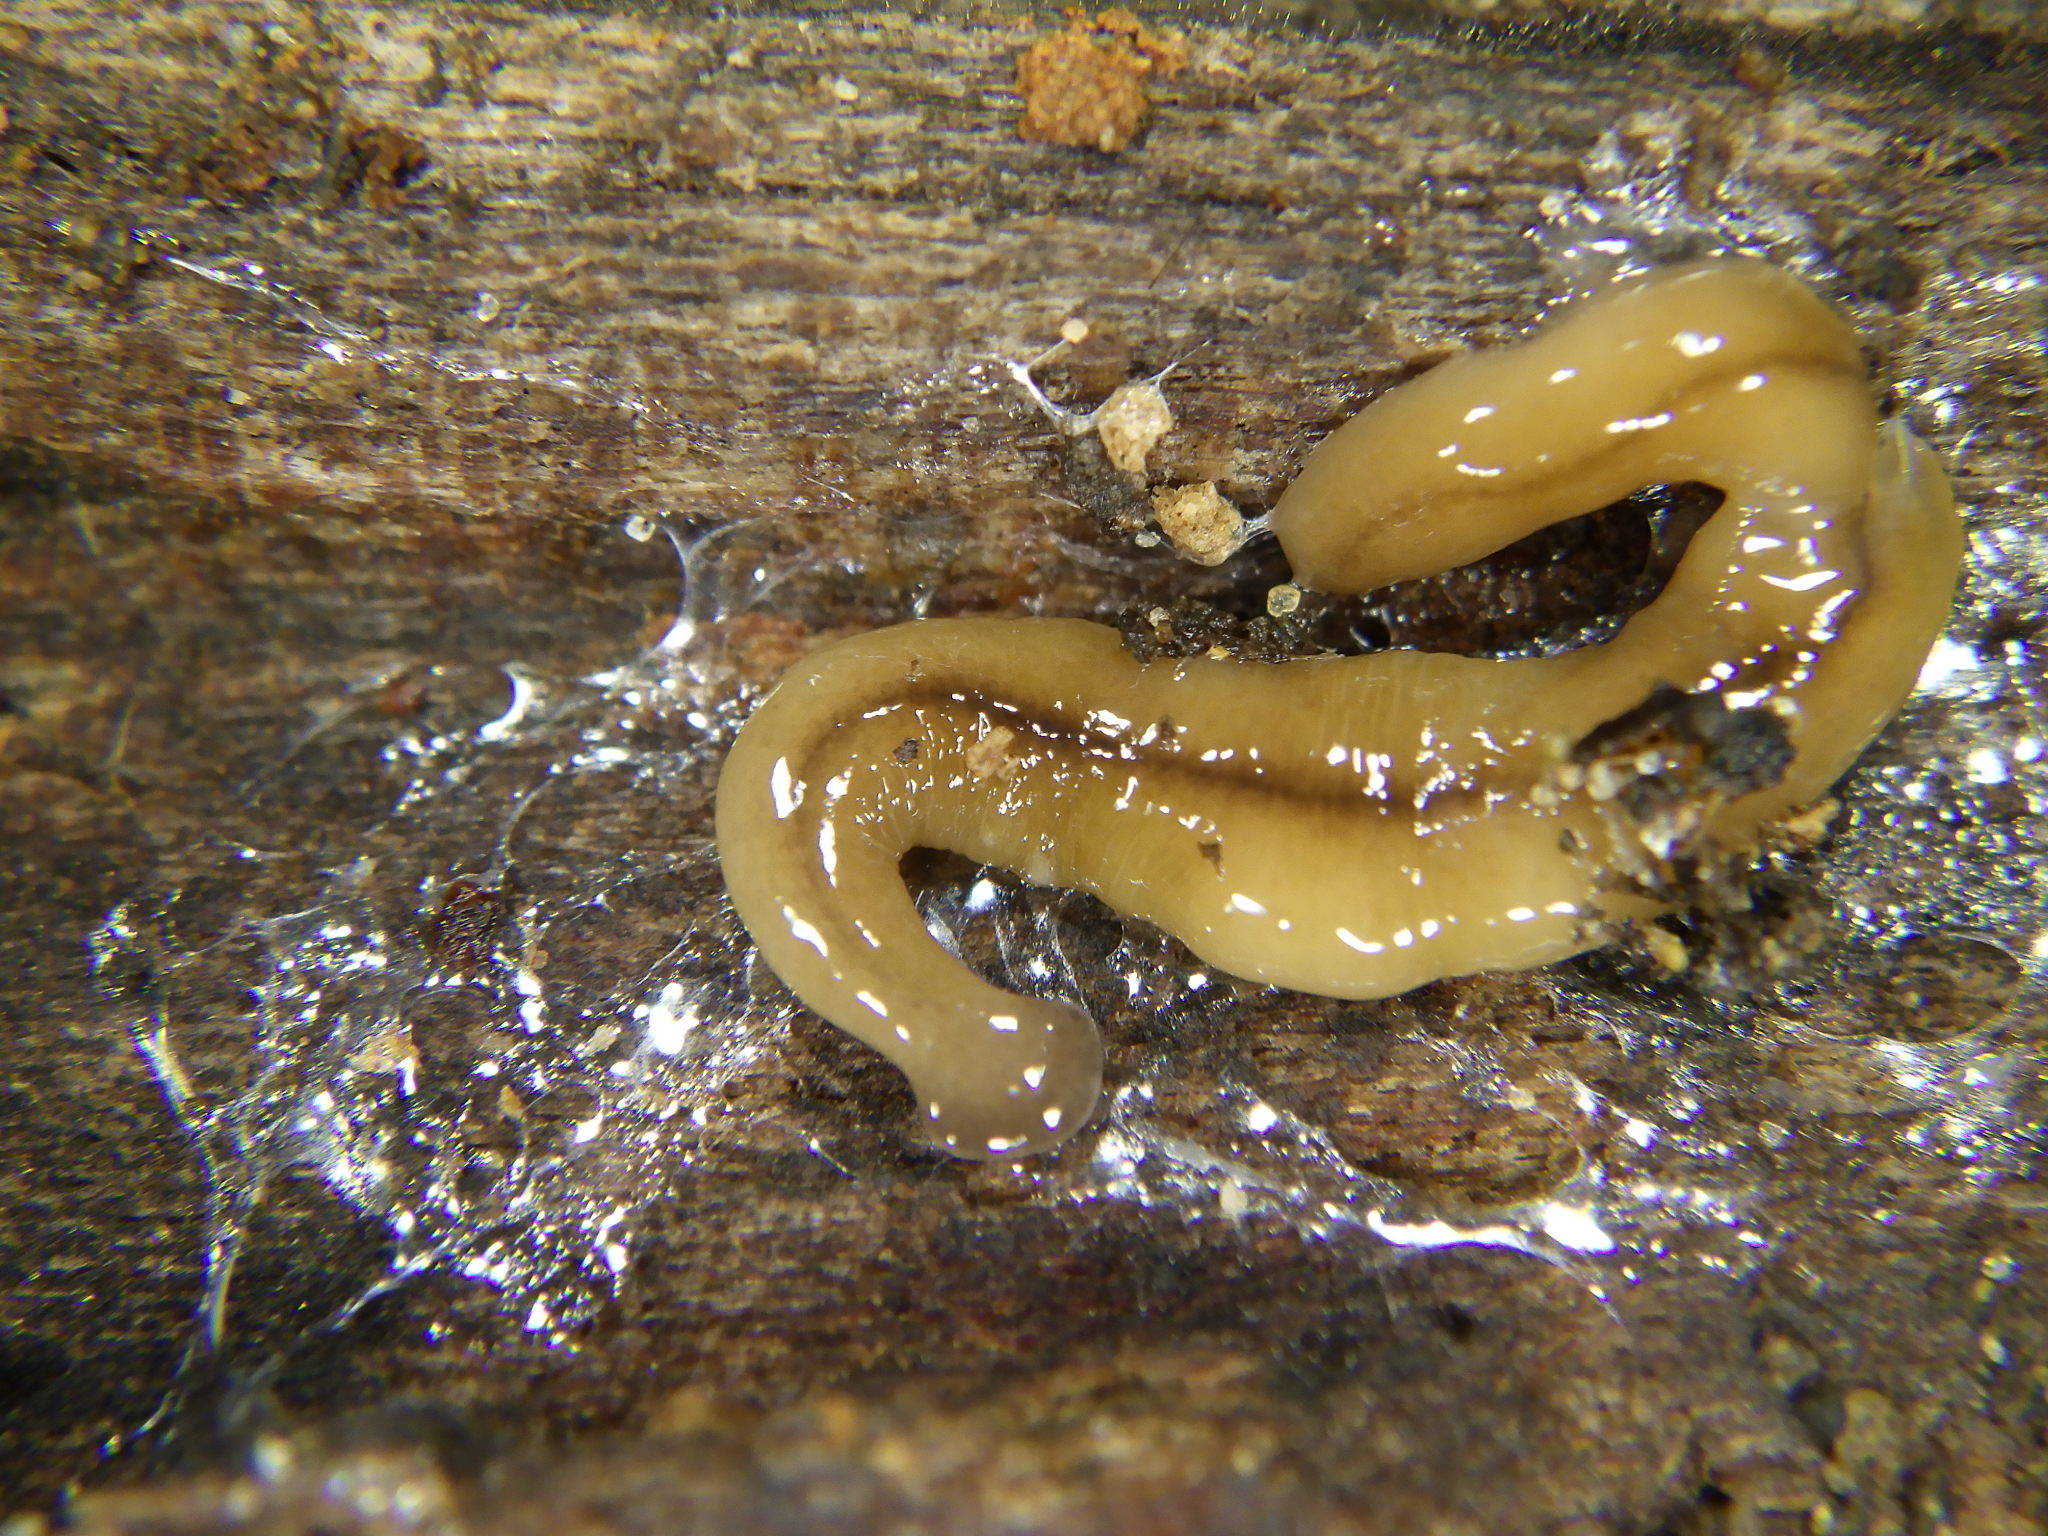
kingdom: Animalia
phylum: Platyhelminthes
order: Tricladida
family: Geoplanidae
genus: Bipalium
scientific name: Bipalium adventitium
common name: Land planarian
